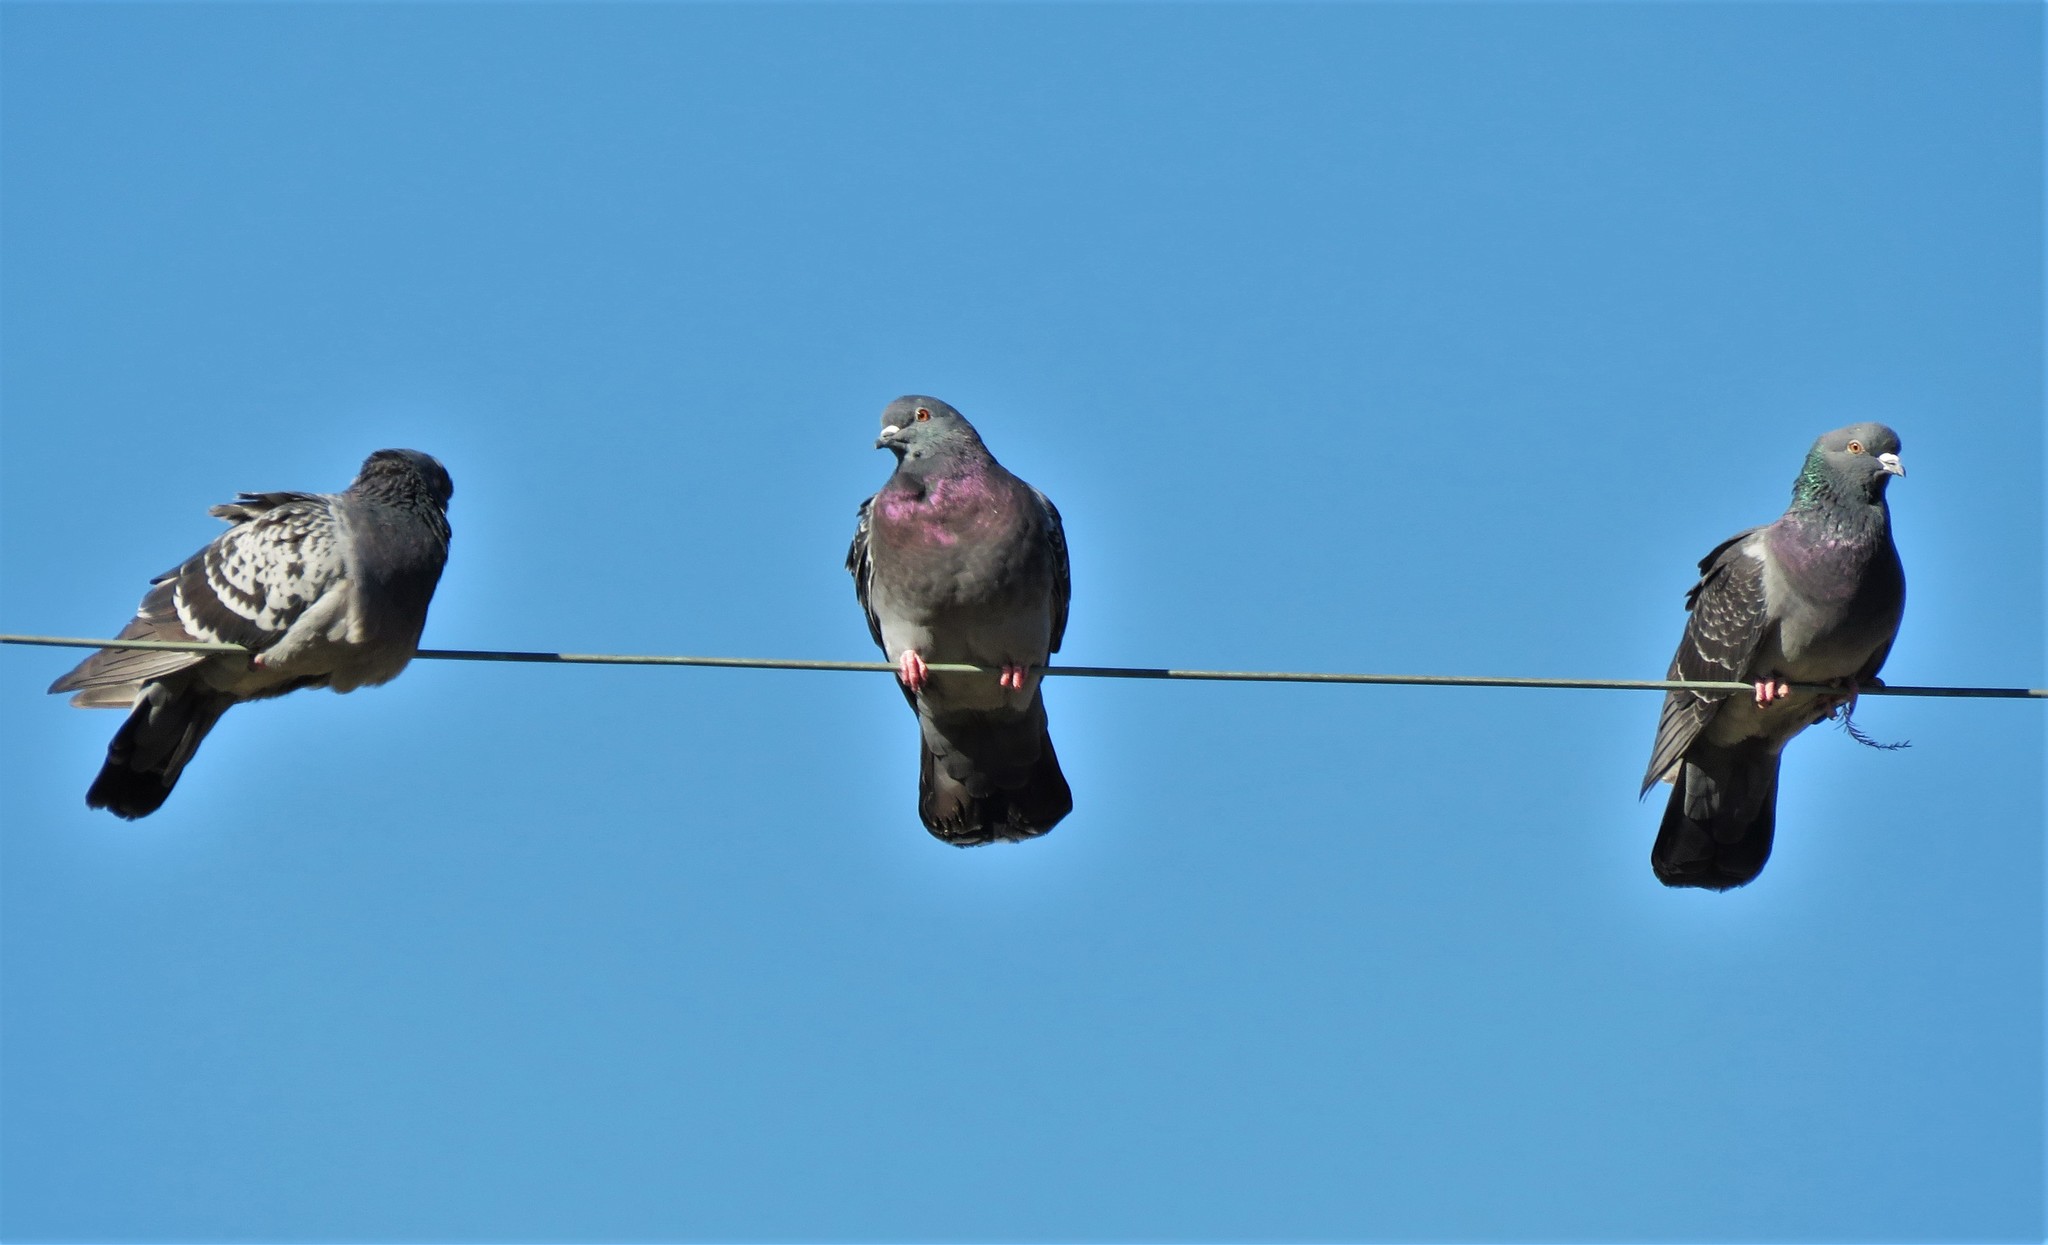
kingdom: Animalia
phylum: Chordata
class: Aves
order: Columbiformes
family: Columbidae
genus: Columba
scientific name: Columba livia
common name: Rock pigeon
